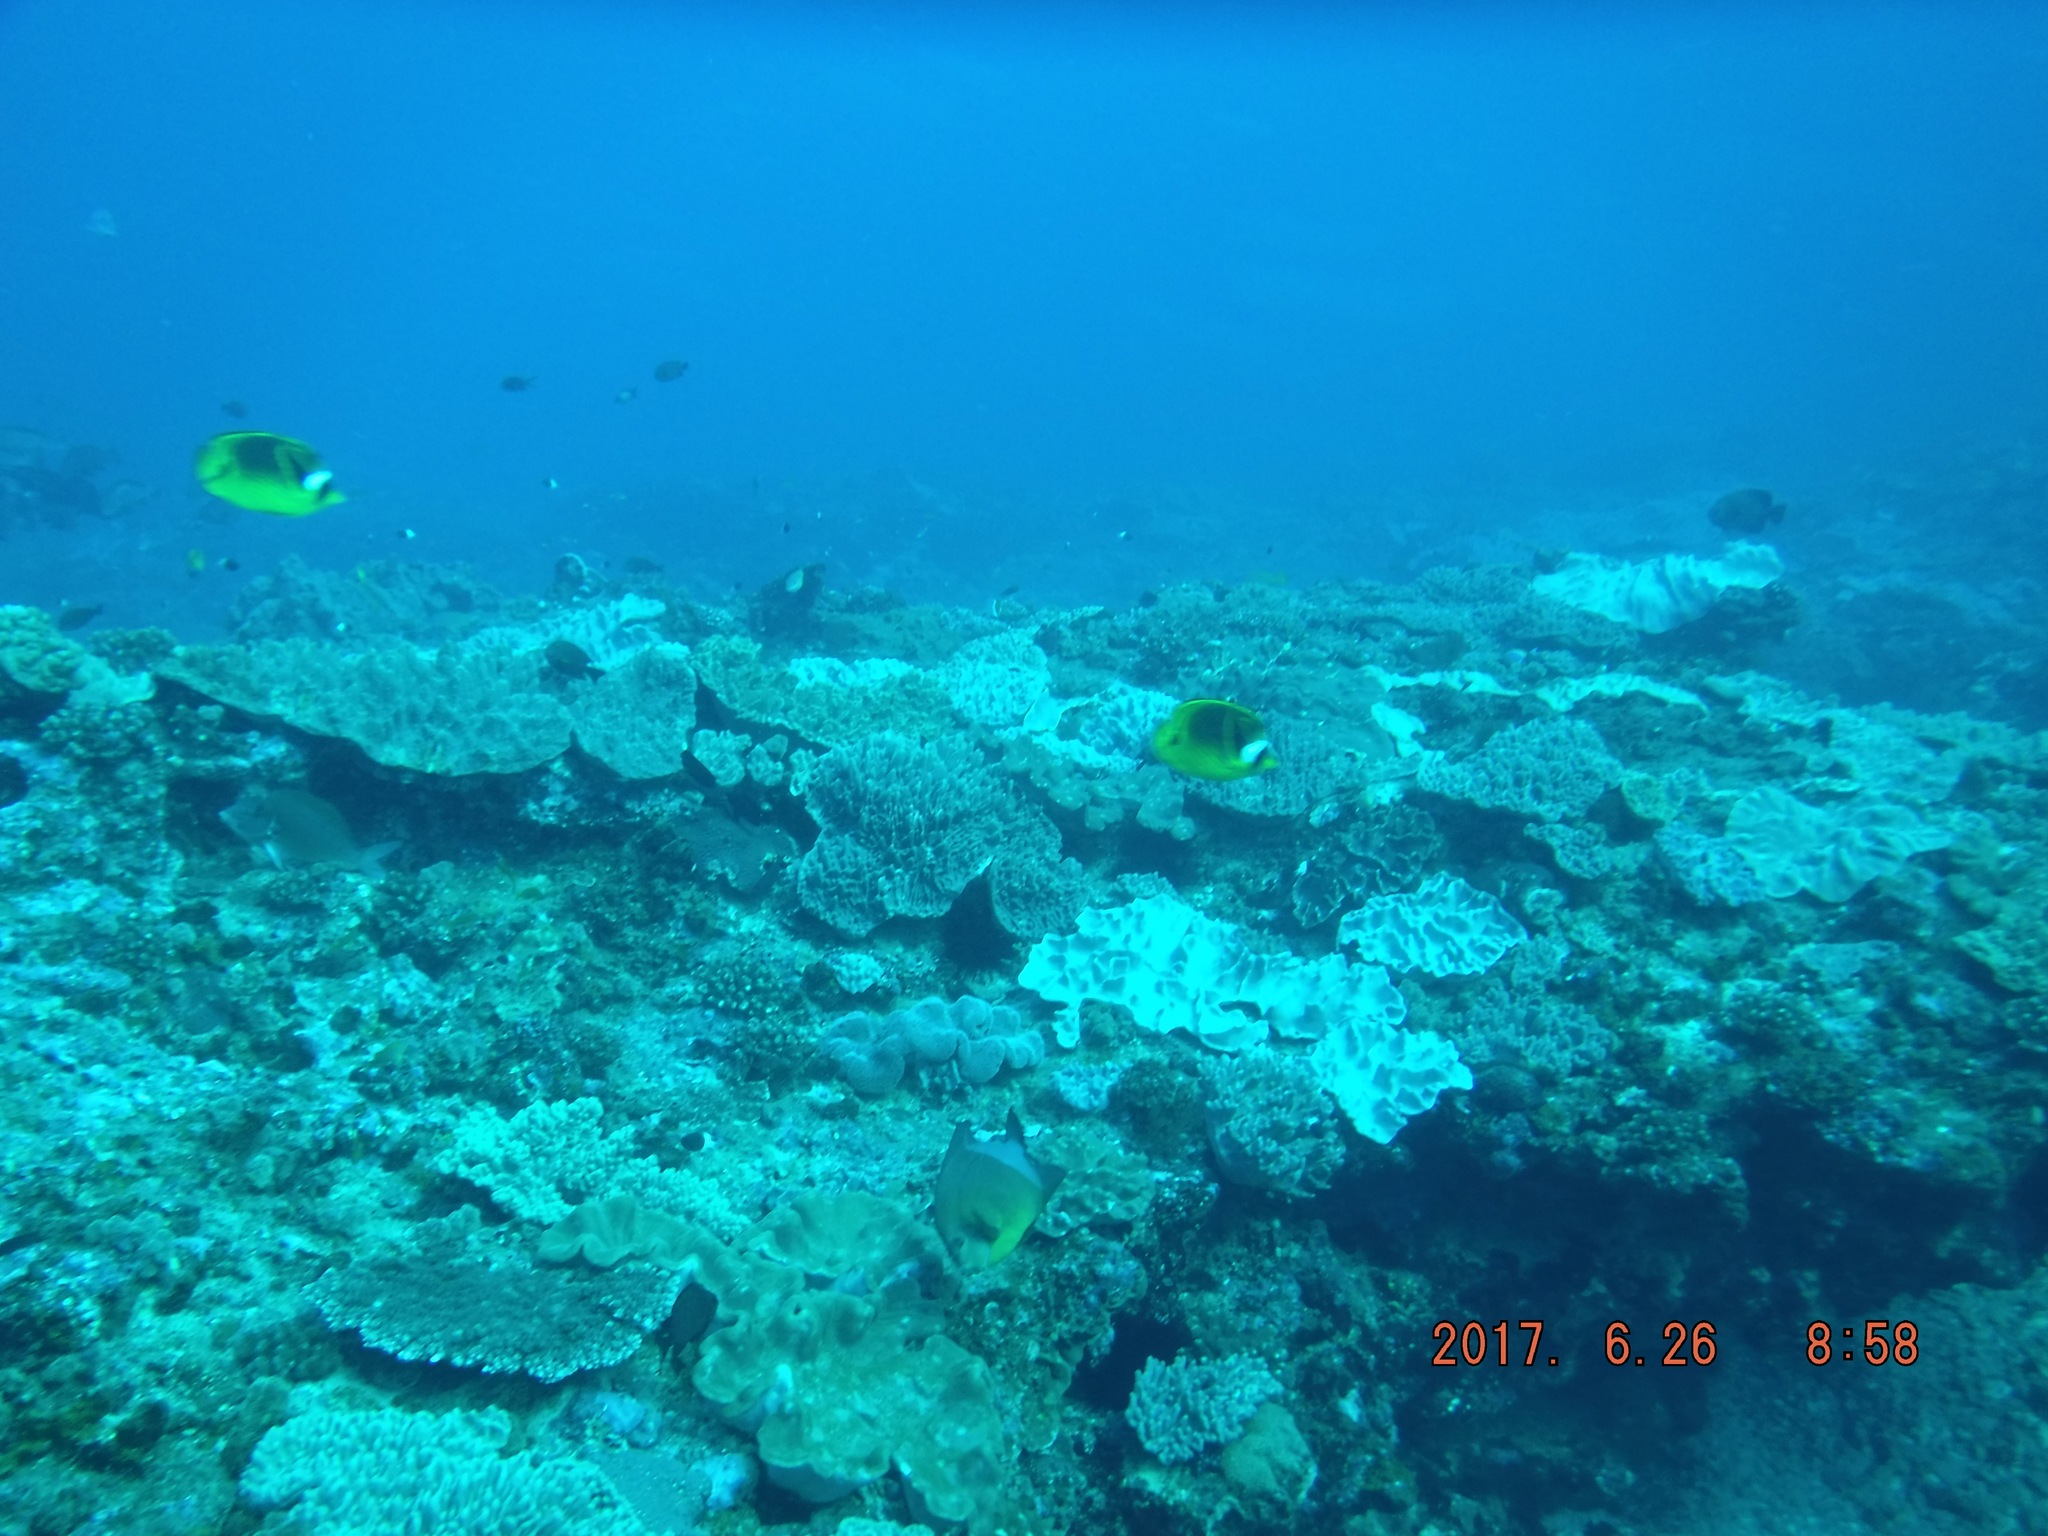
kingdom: Animalia
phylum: Chordata
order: Perciformes
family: Chaetodontidae
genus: Chaetodon
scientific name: Chaetodon lunula
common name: Raccoon butterflyfish
